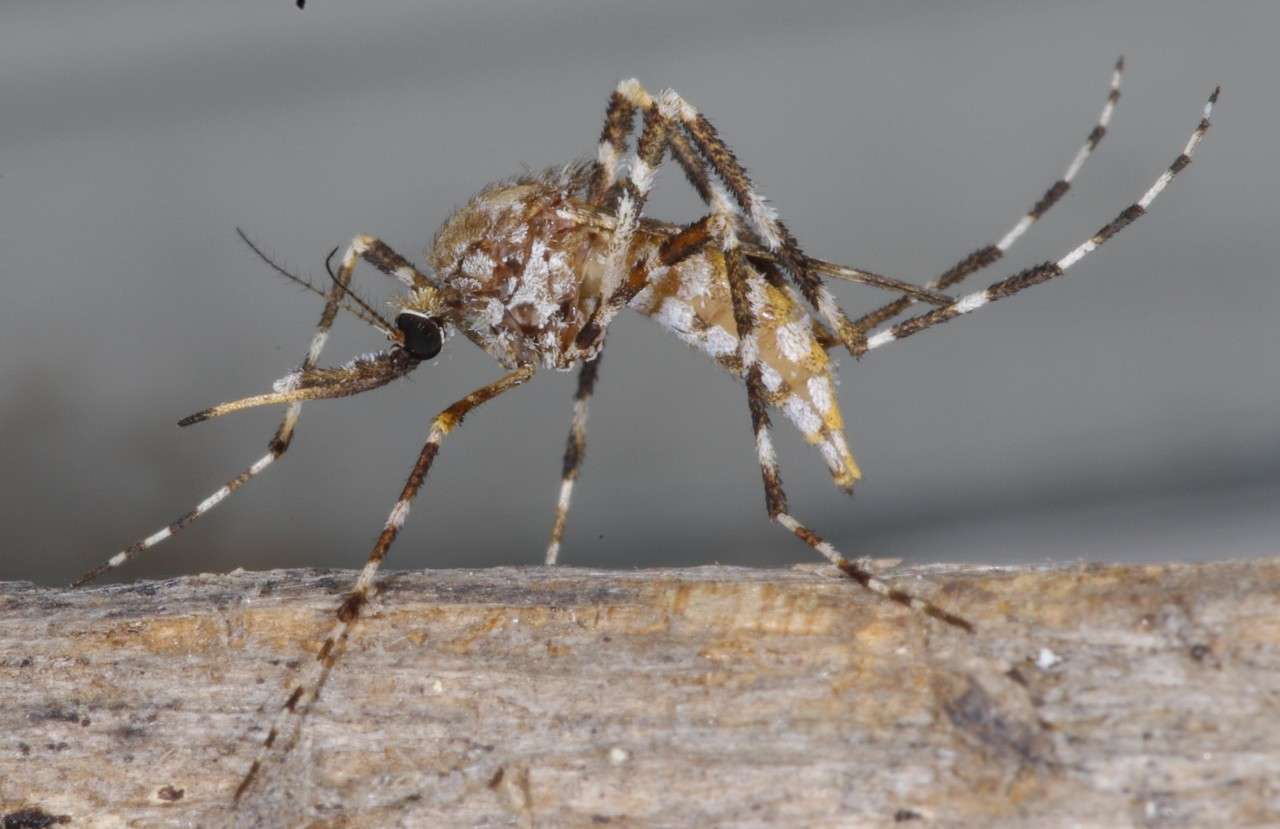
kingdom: Animalia
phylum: Arthropoda
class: Insecta
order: Diptera
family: Culicidae
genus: Aedes
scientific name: Aedes alternans
